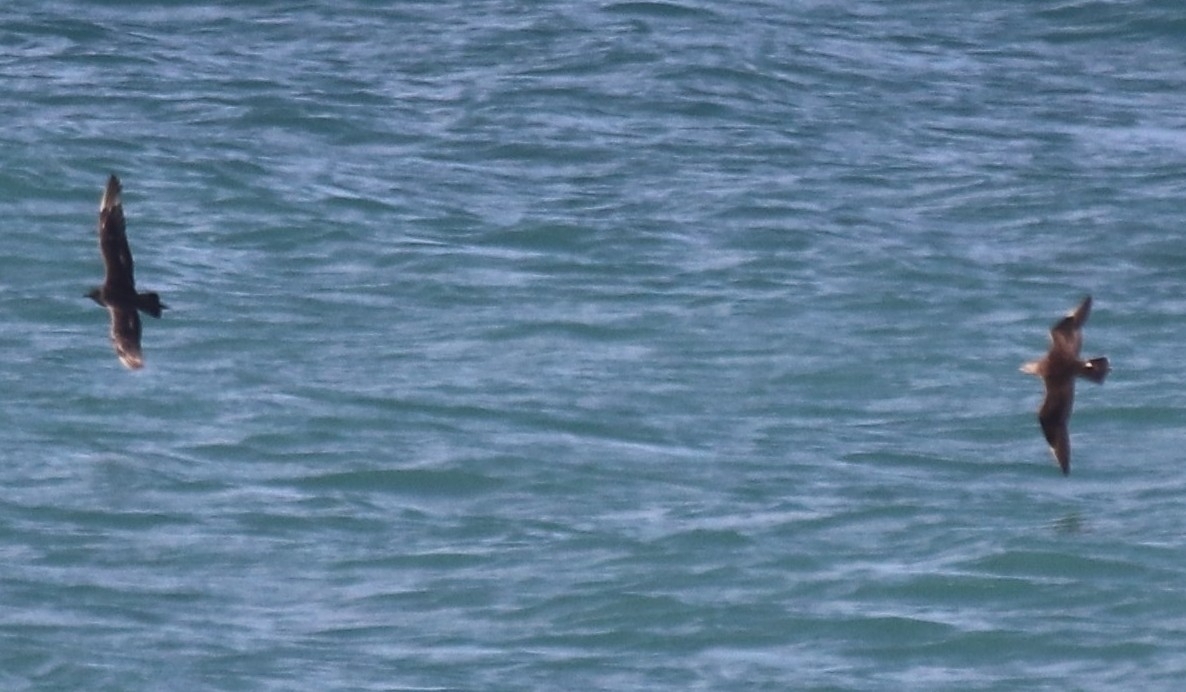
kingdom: Animalia
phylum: Chordata
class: Aves
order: Charadriiformes
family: Stercorariidae
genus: Stercorarius
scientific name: Stercorarius parasiticus
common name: Parasitic jaeger
